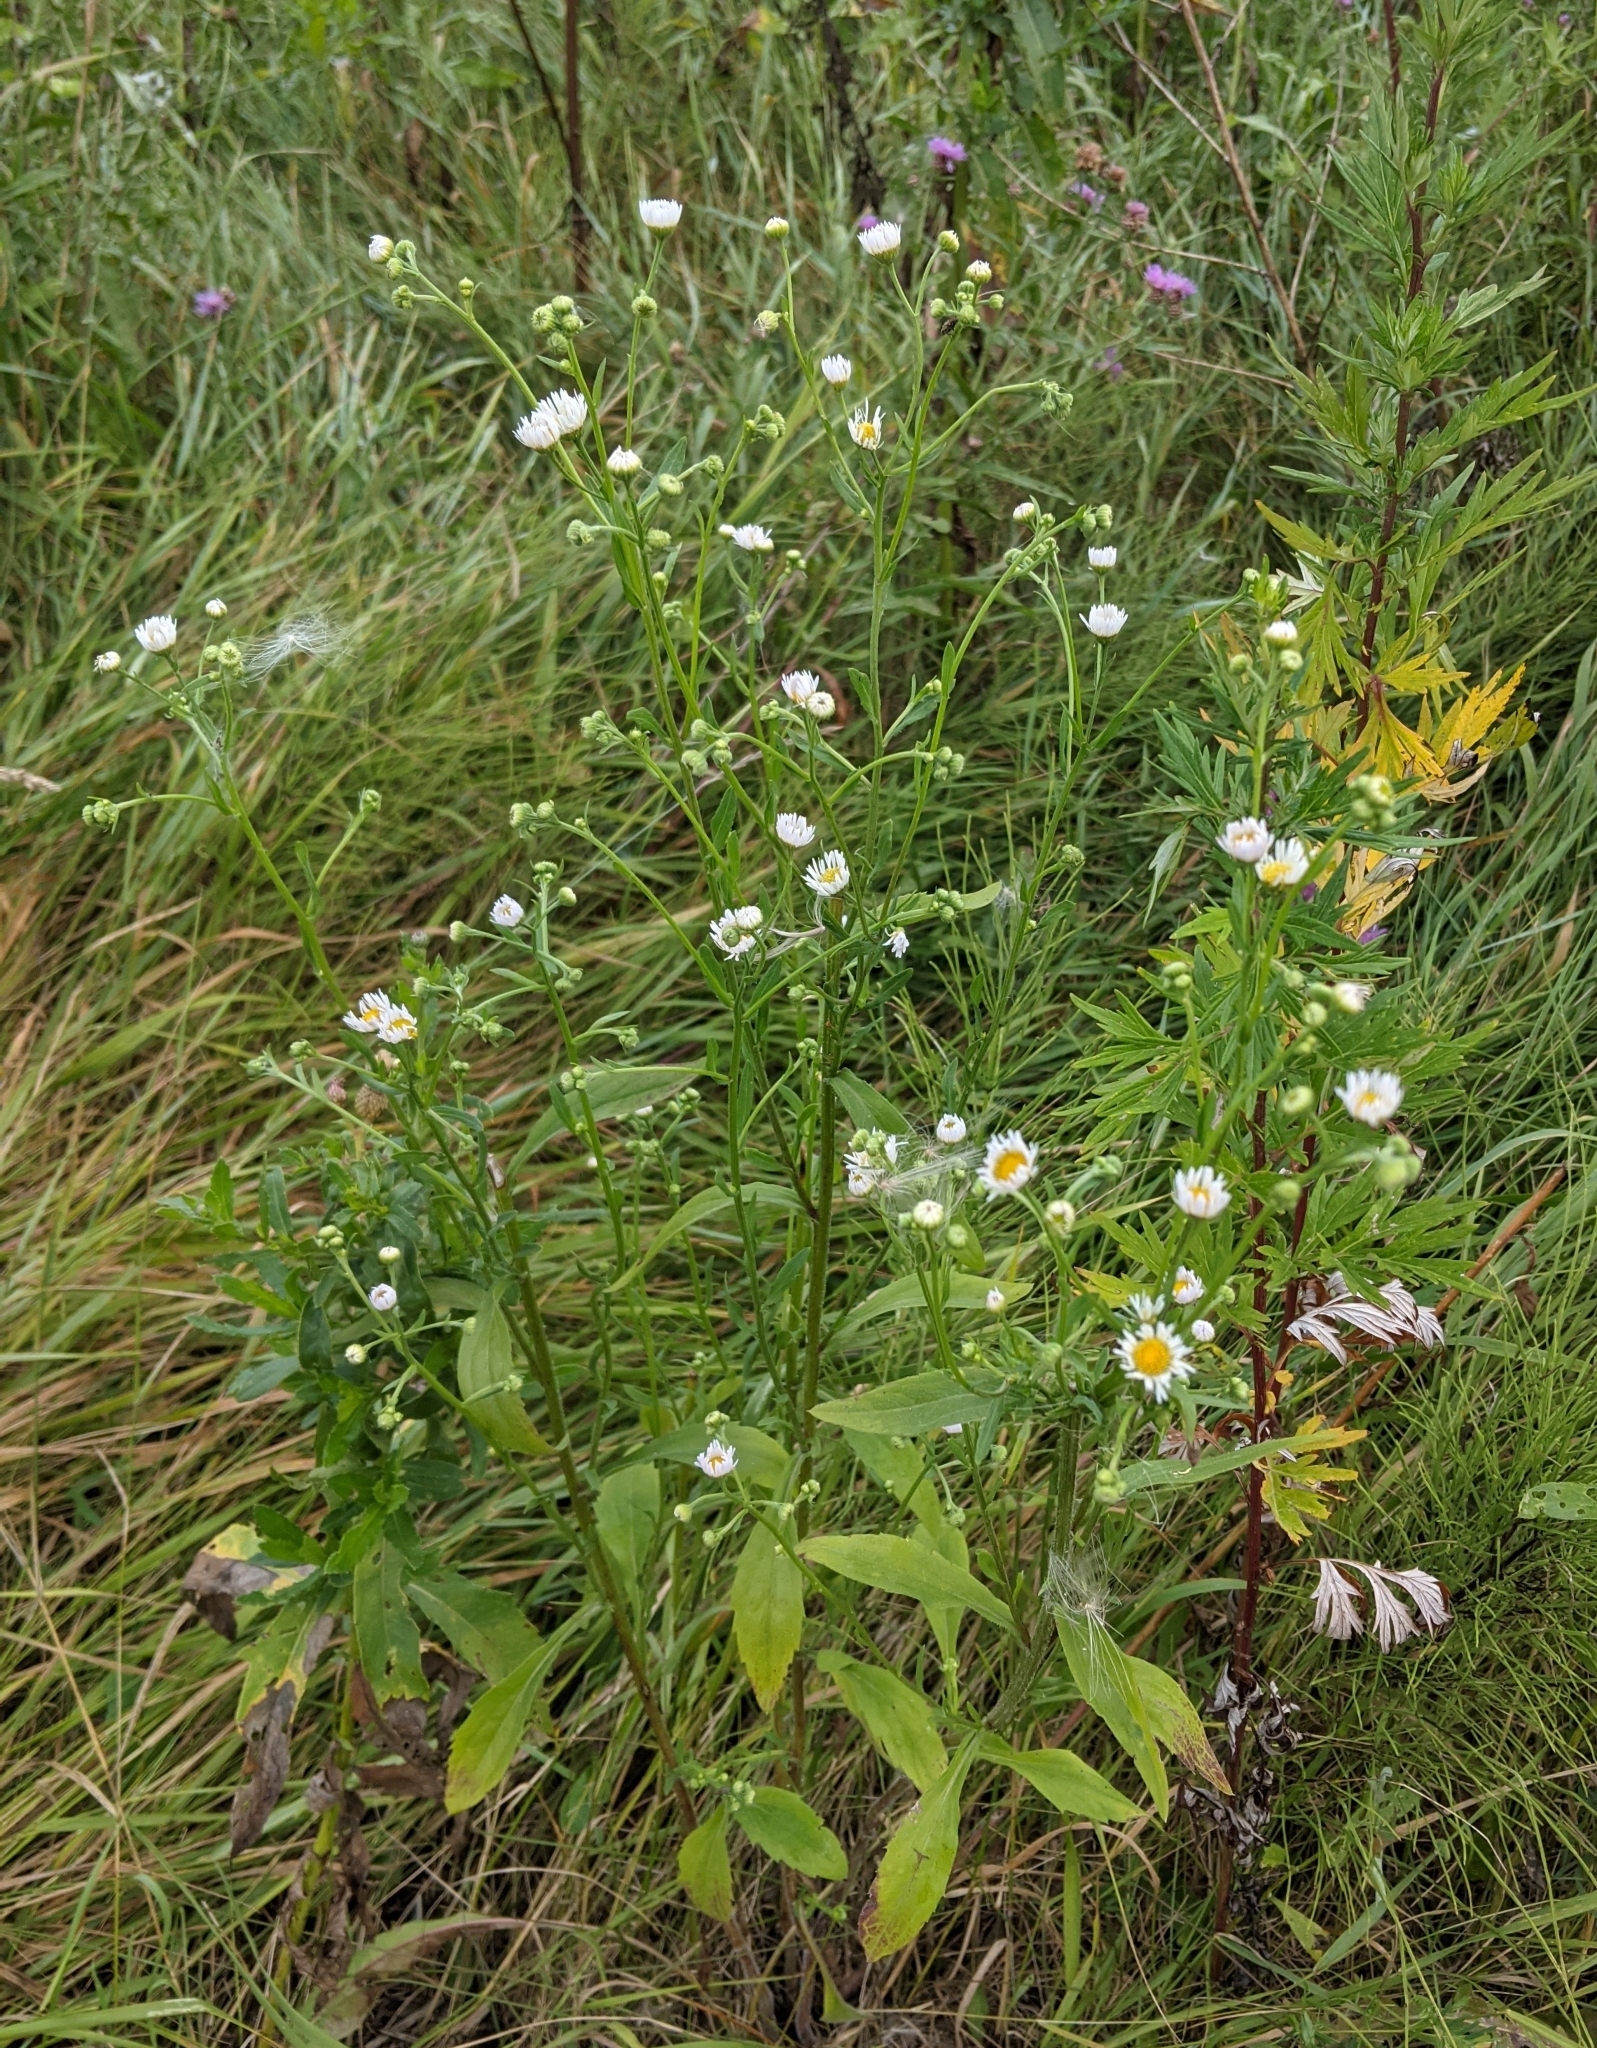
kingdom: Plantae
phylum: Tracheophyta
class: Magnoliopsida
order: Asterales
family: Asteraceae
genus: Erigeron
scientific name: Erigeron annuus
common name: Tall fleabane
